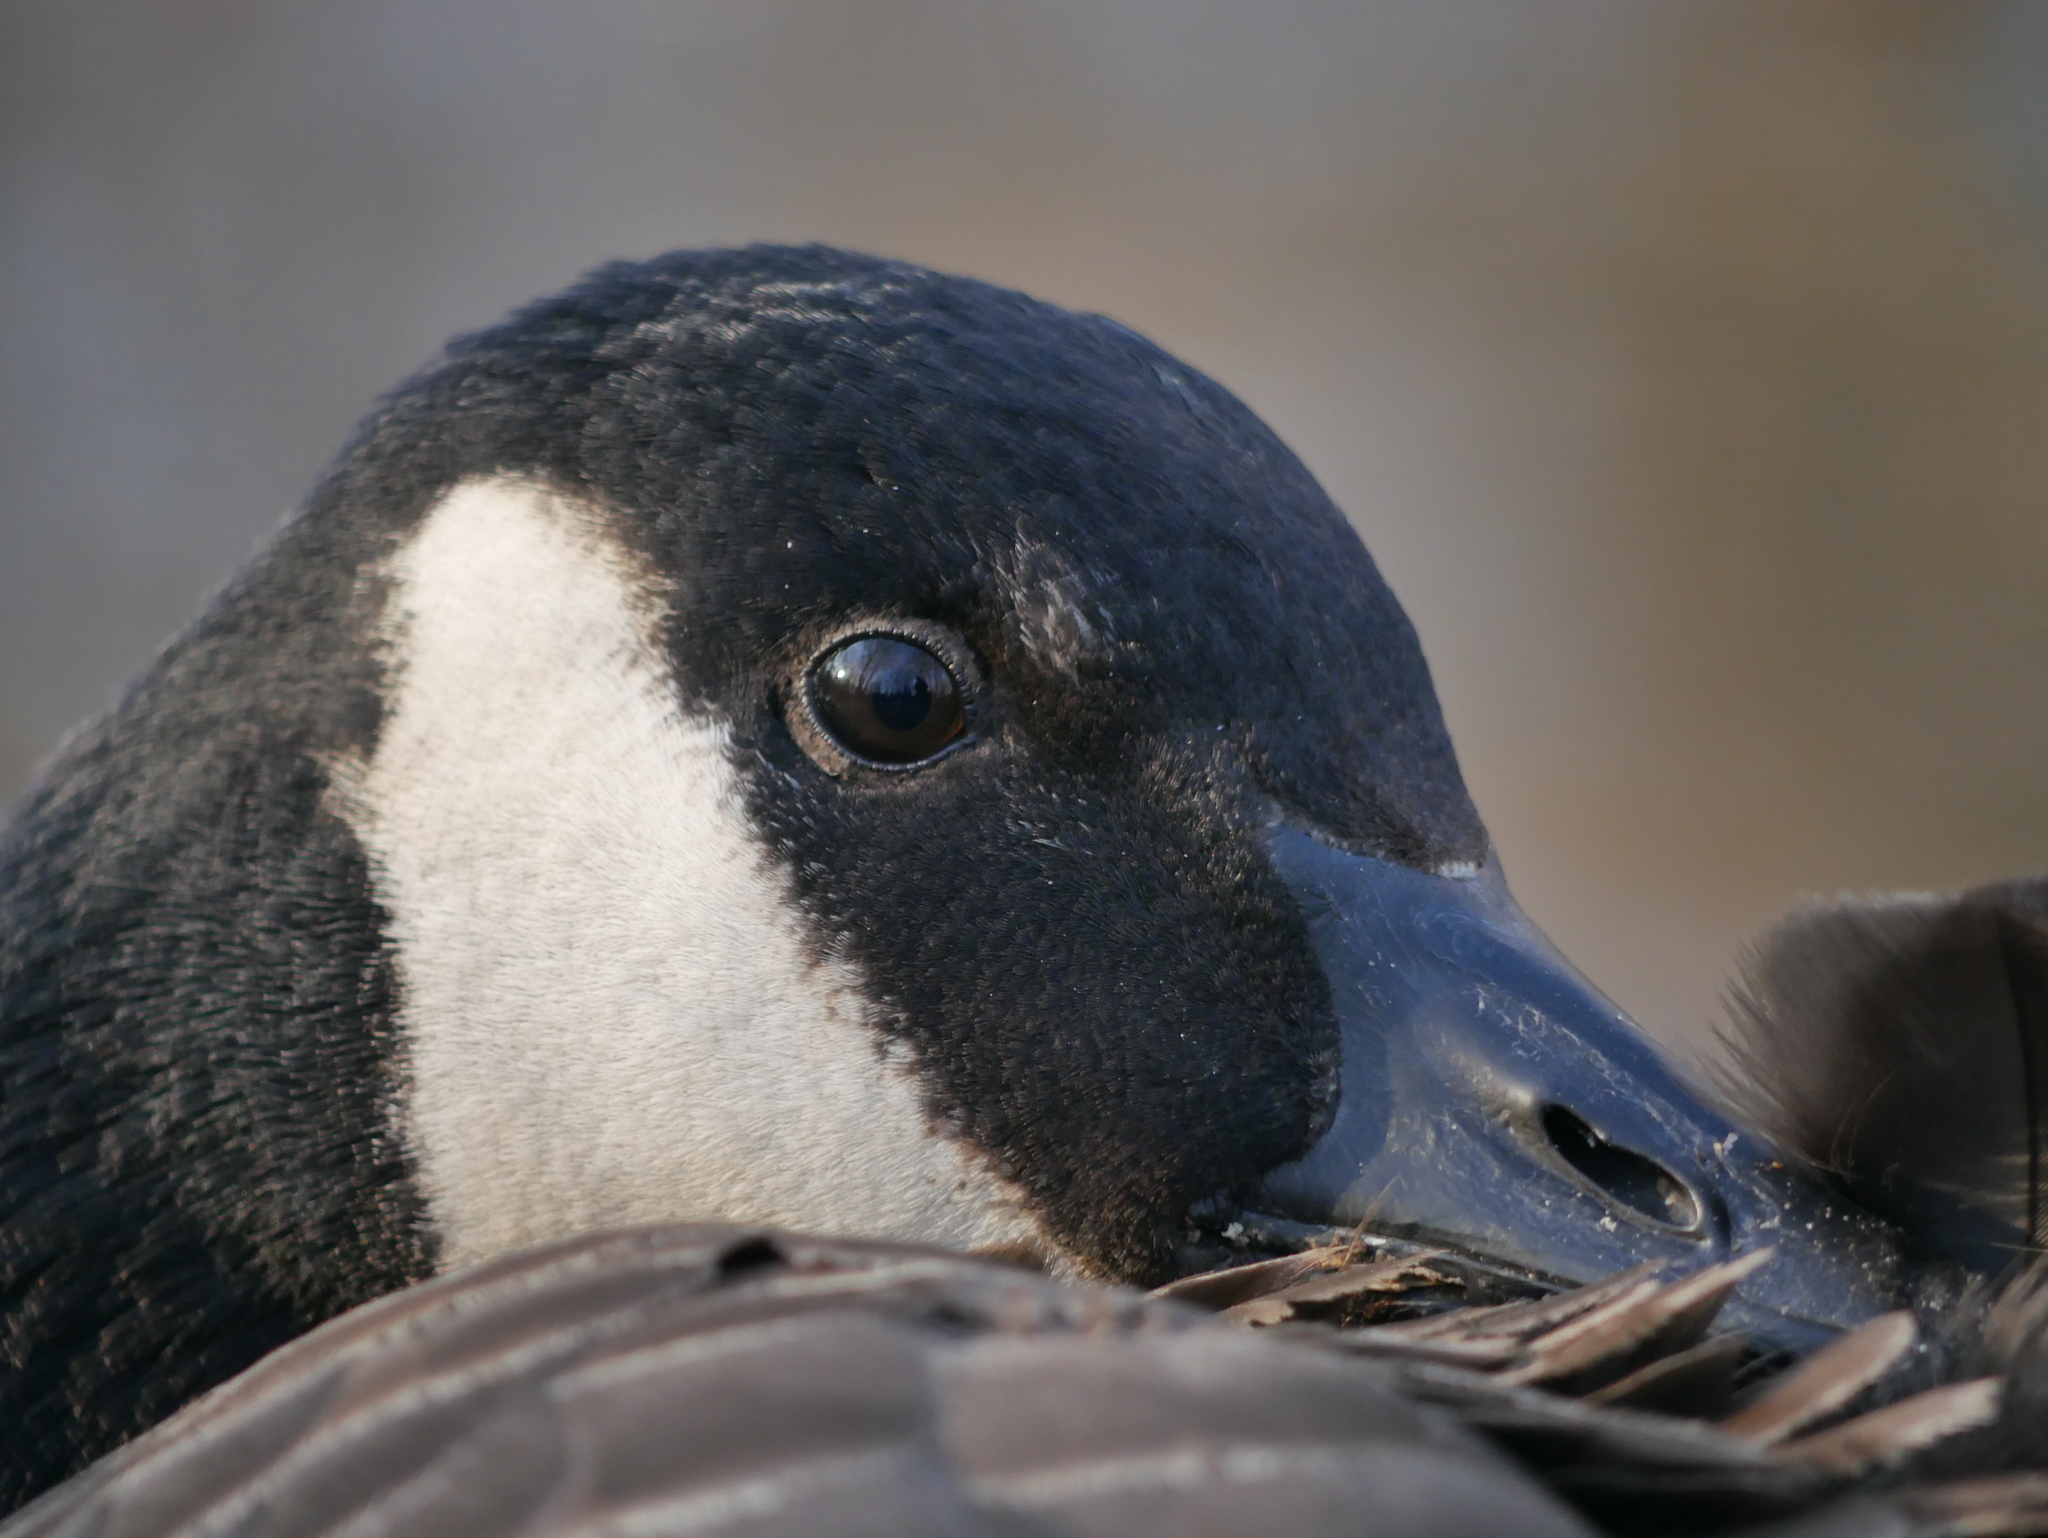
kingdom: Animalia
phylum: Chordata
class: Aves
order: Anseriformes
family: Anatidae
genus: Branta
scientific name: Branta canadensis
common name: Canada goose
